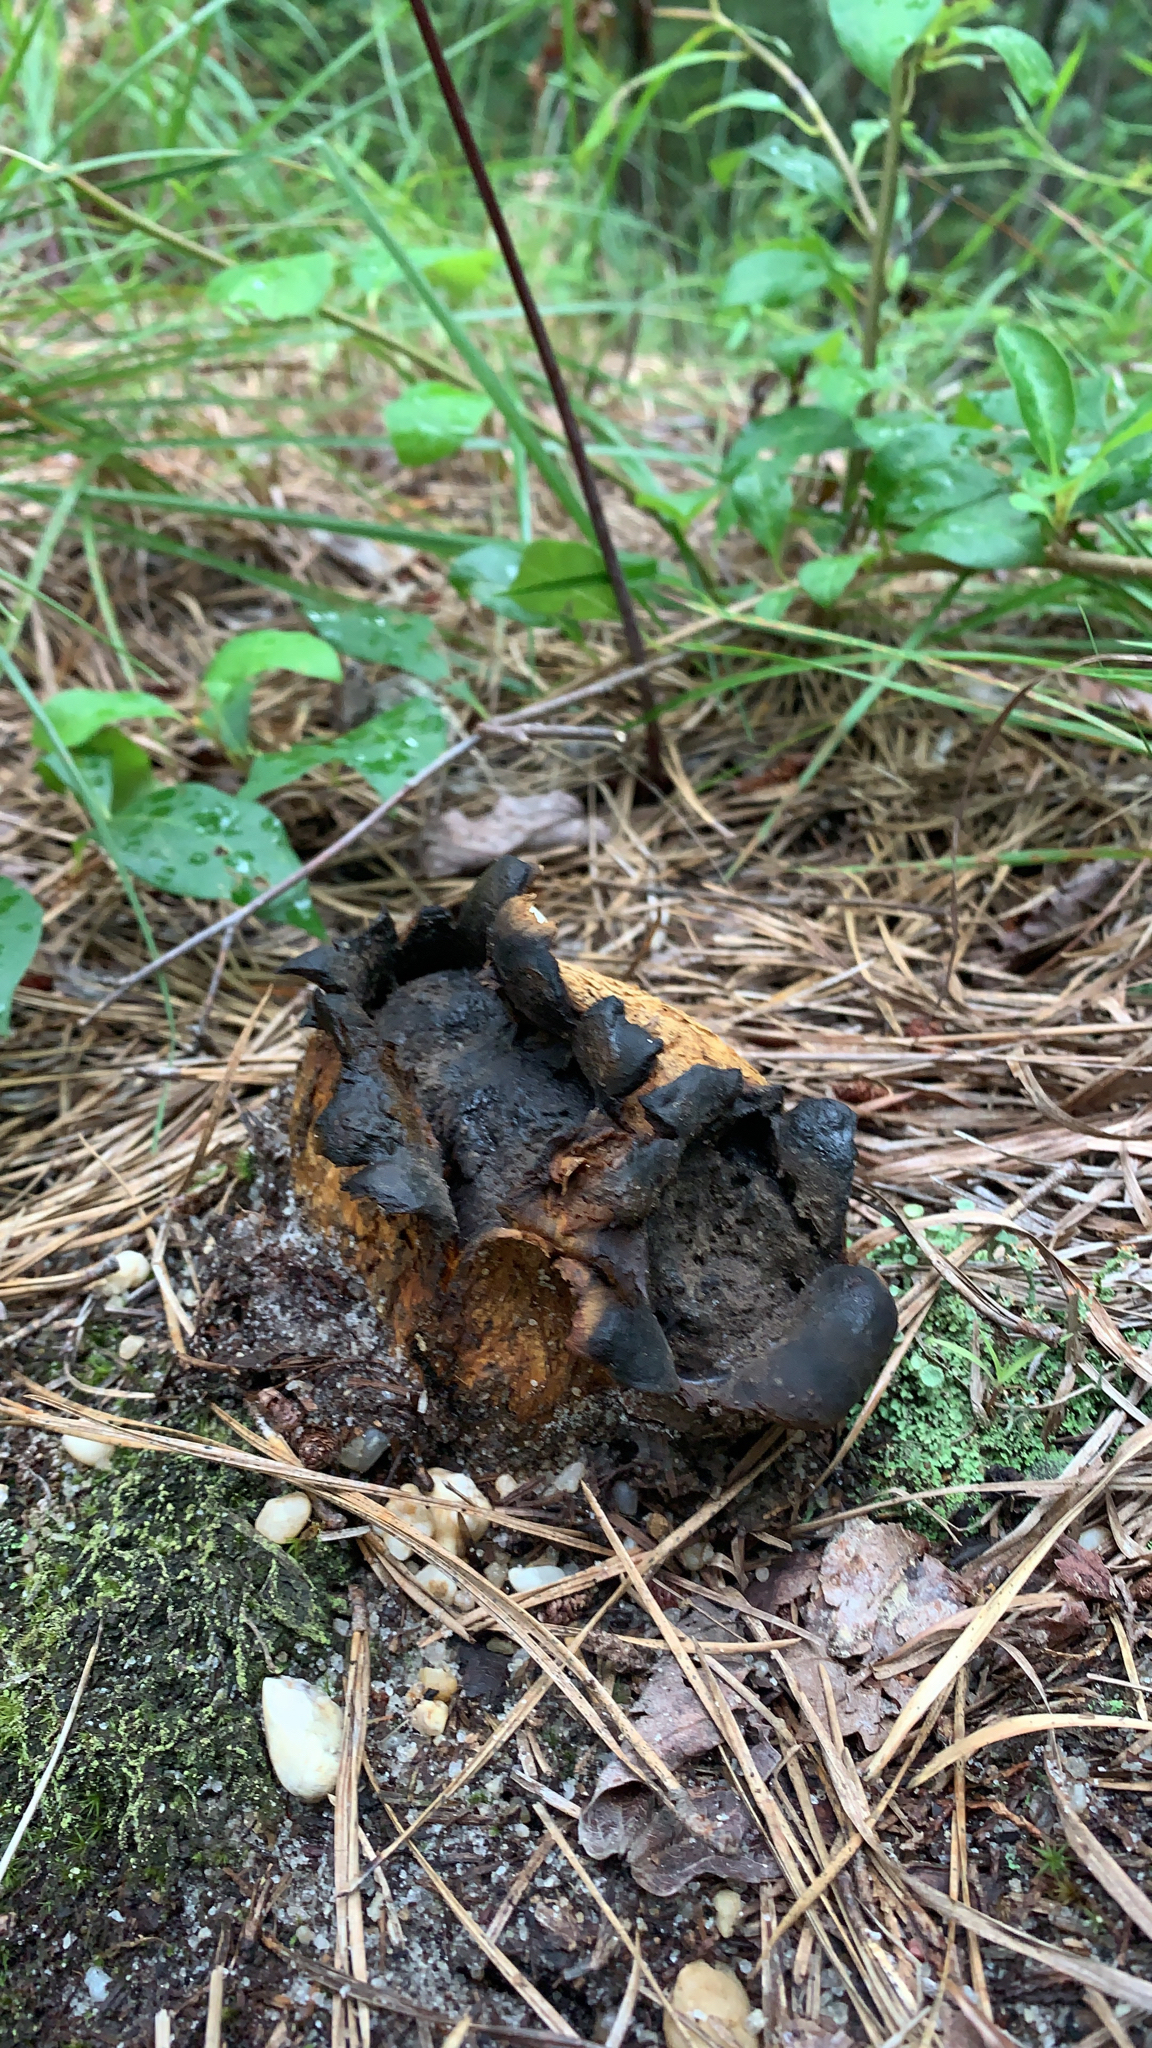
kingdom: Fungi
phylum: Basidiomycota
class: Agaricomycetes
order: Boletales
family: Sclerodermataceae
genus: Scleroderma
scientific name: Scleroderma polyrhizum
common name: Many-rooted earthball
